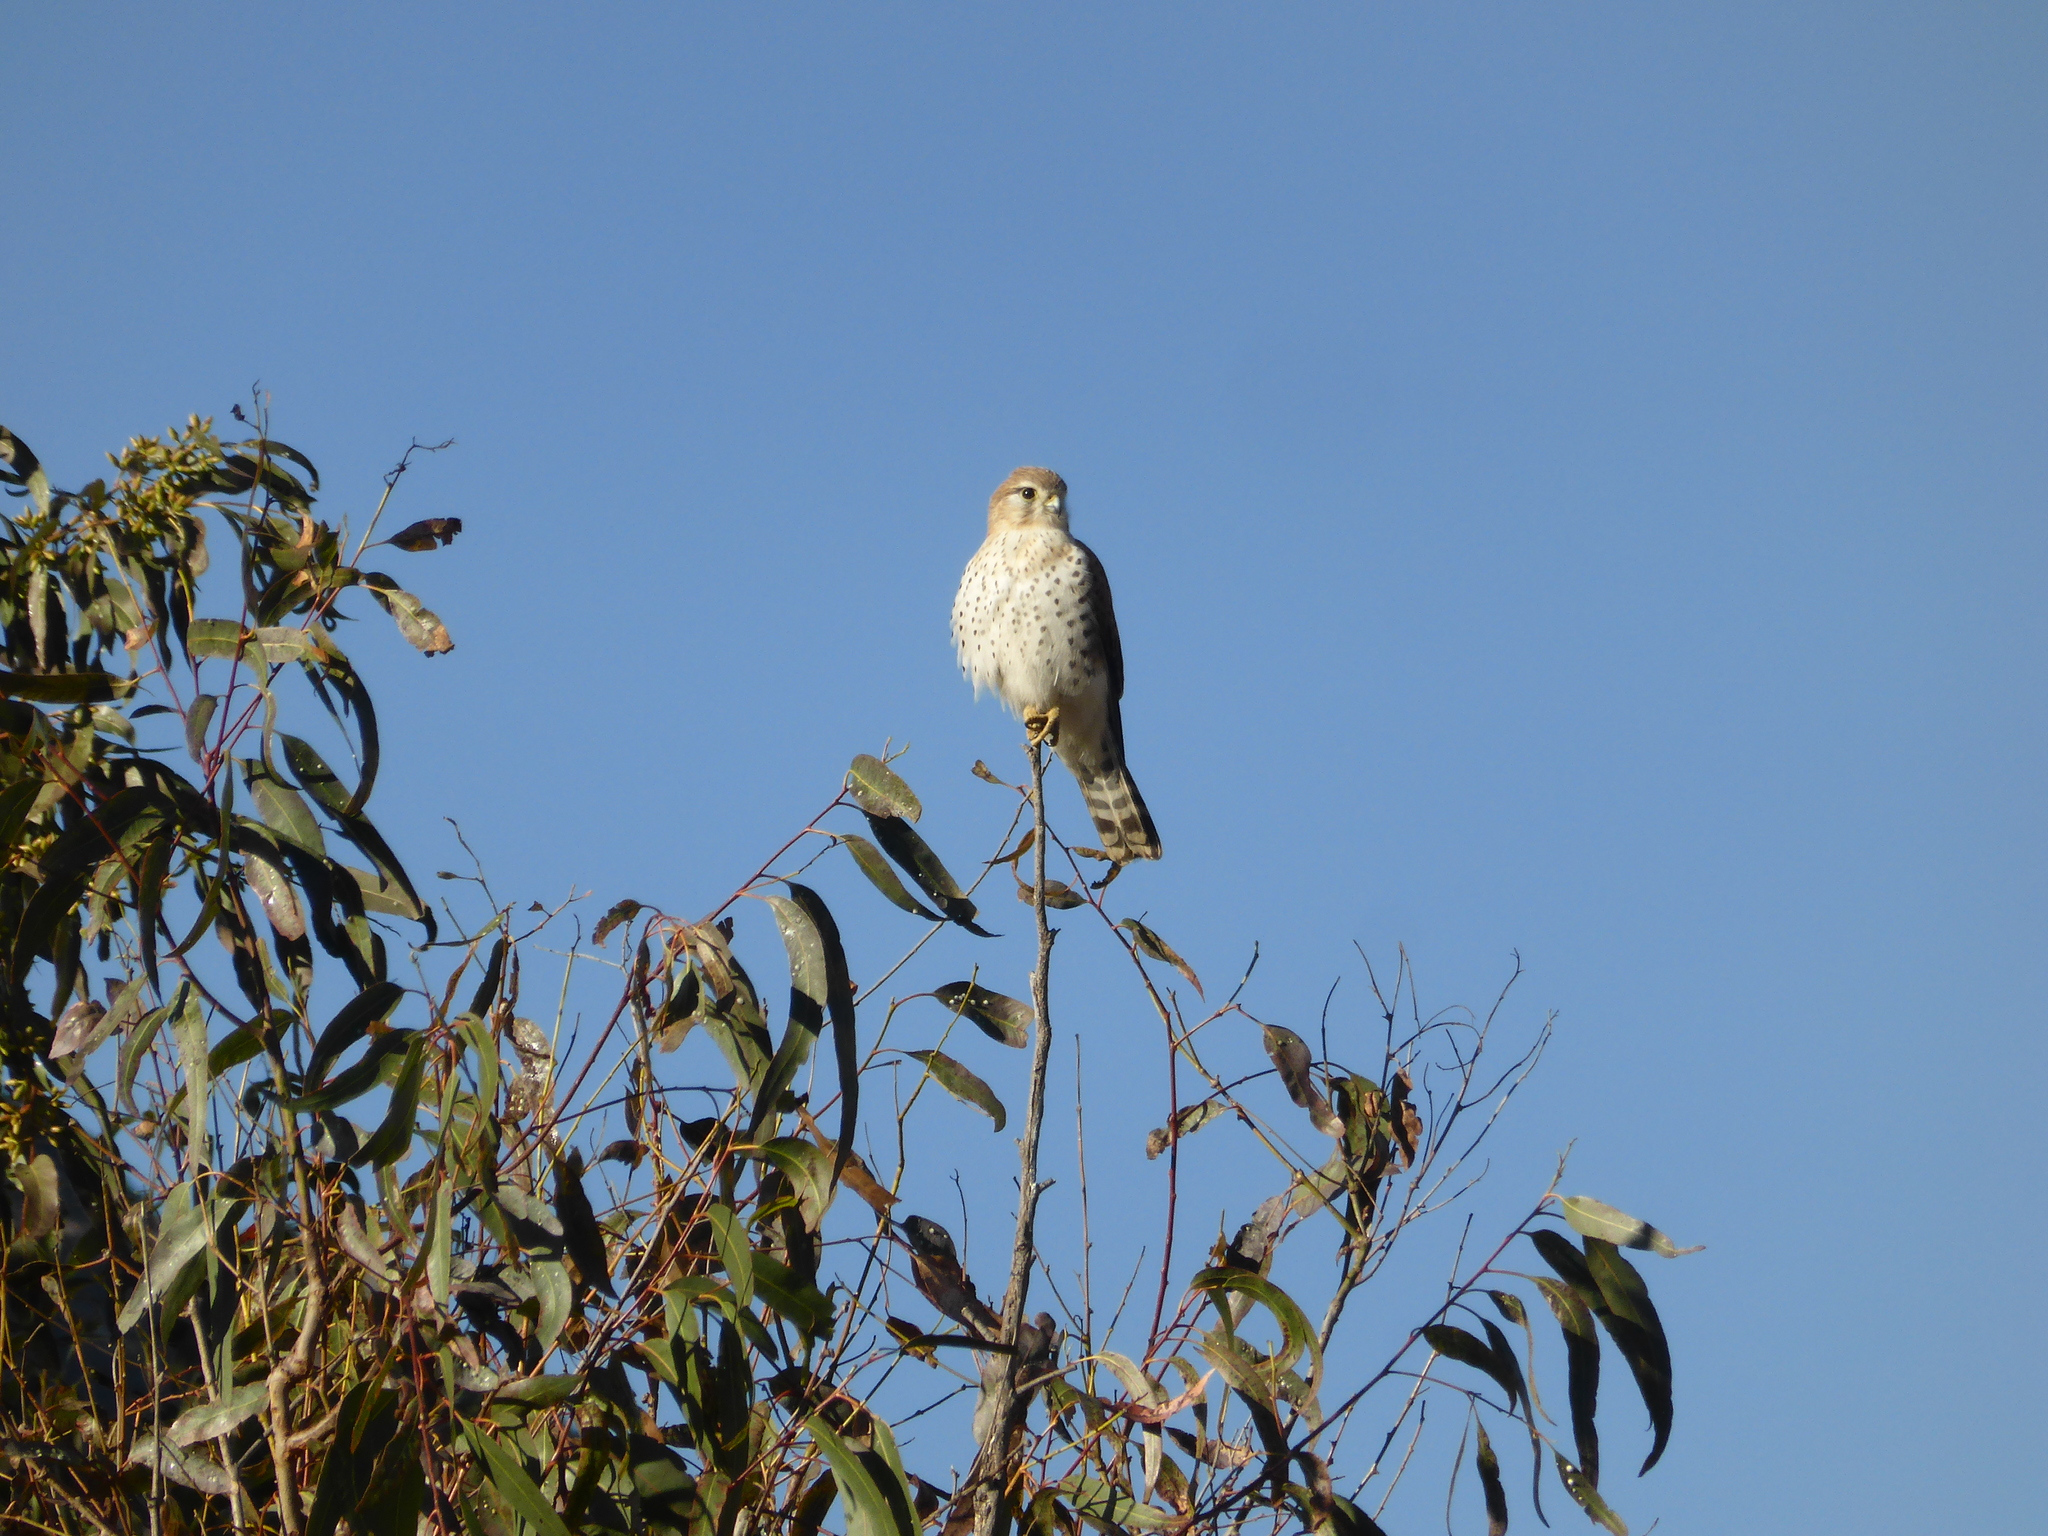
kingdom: Animalia
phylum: Chordata
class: Aves
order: Falconiformes
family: Falconidae
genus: Falco
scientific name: Falco newtoni
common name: Malagasy kestrel
